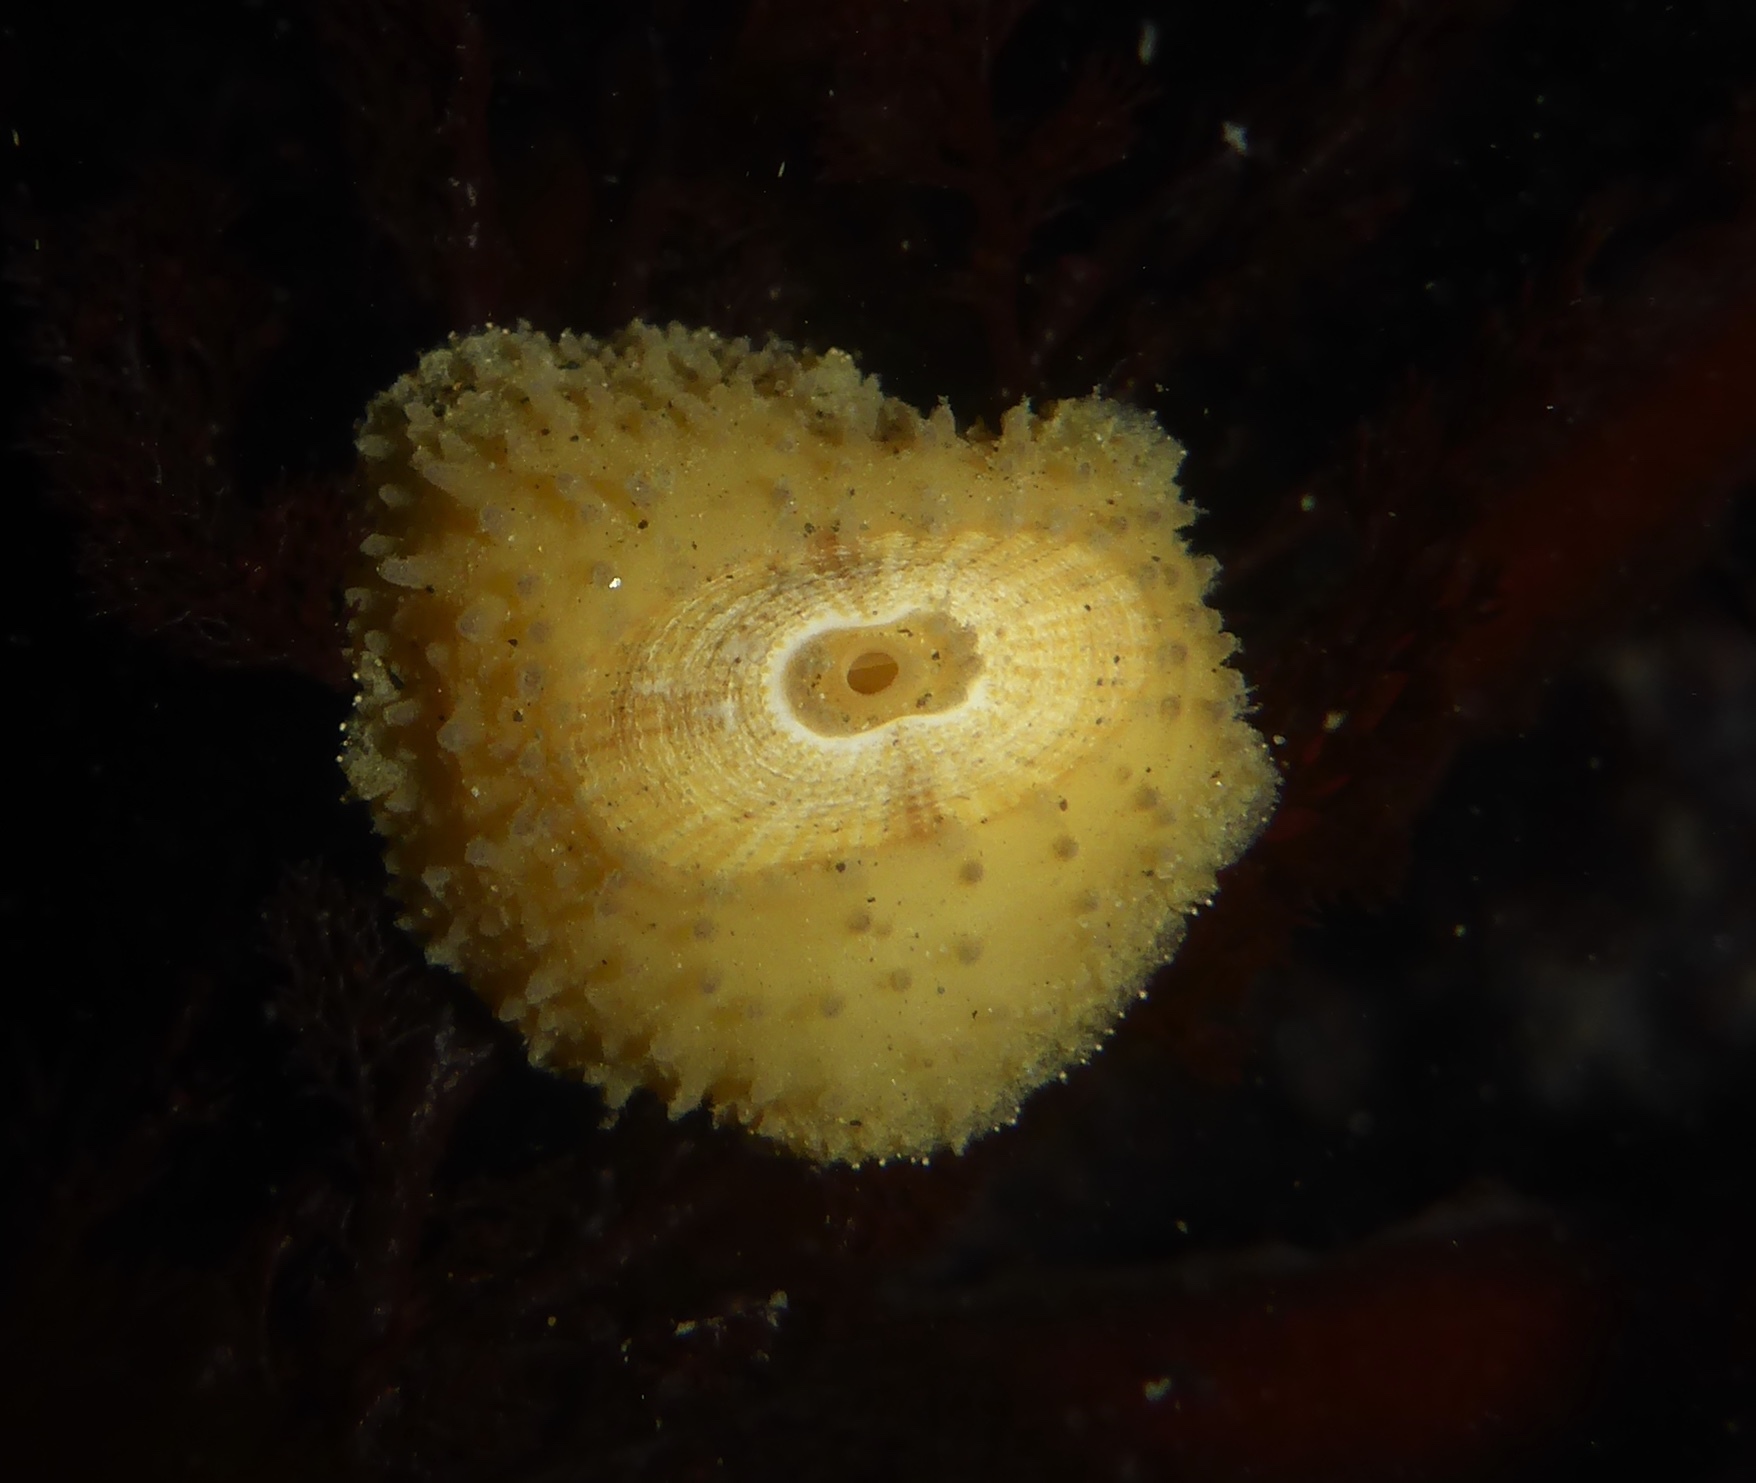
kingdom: Animalia
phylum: Mollusca
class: Gastropoda
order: Lepetellida
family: Fissurellidae
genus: Fissurellidea
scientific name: Fissurellidea bimaculata
